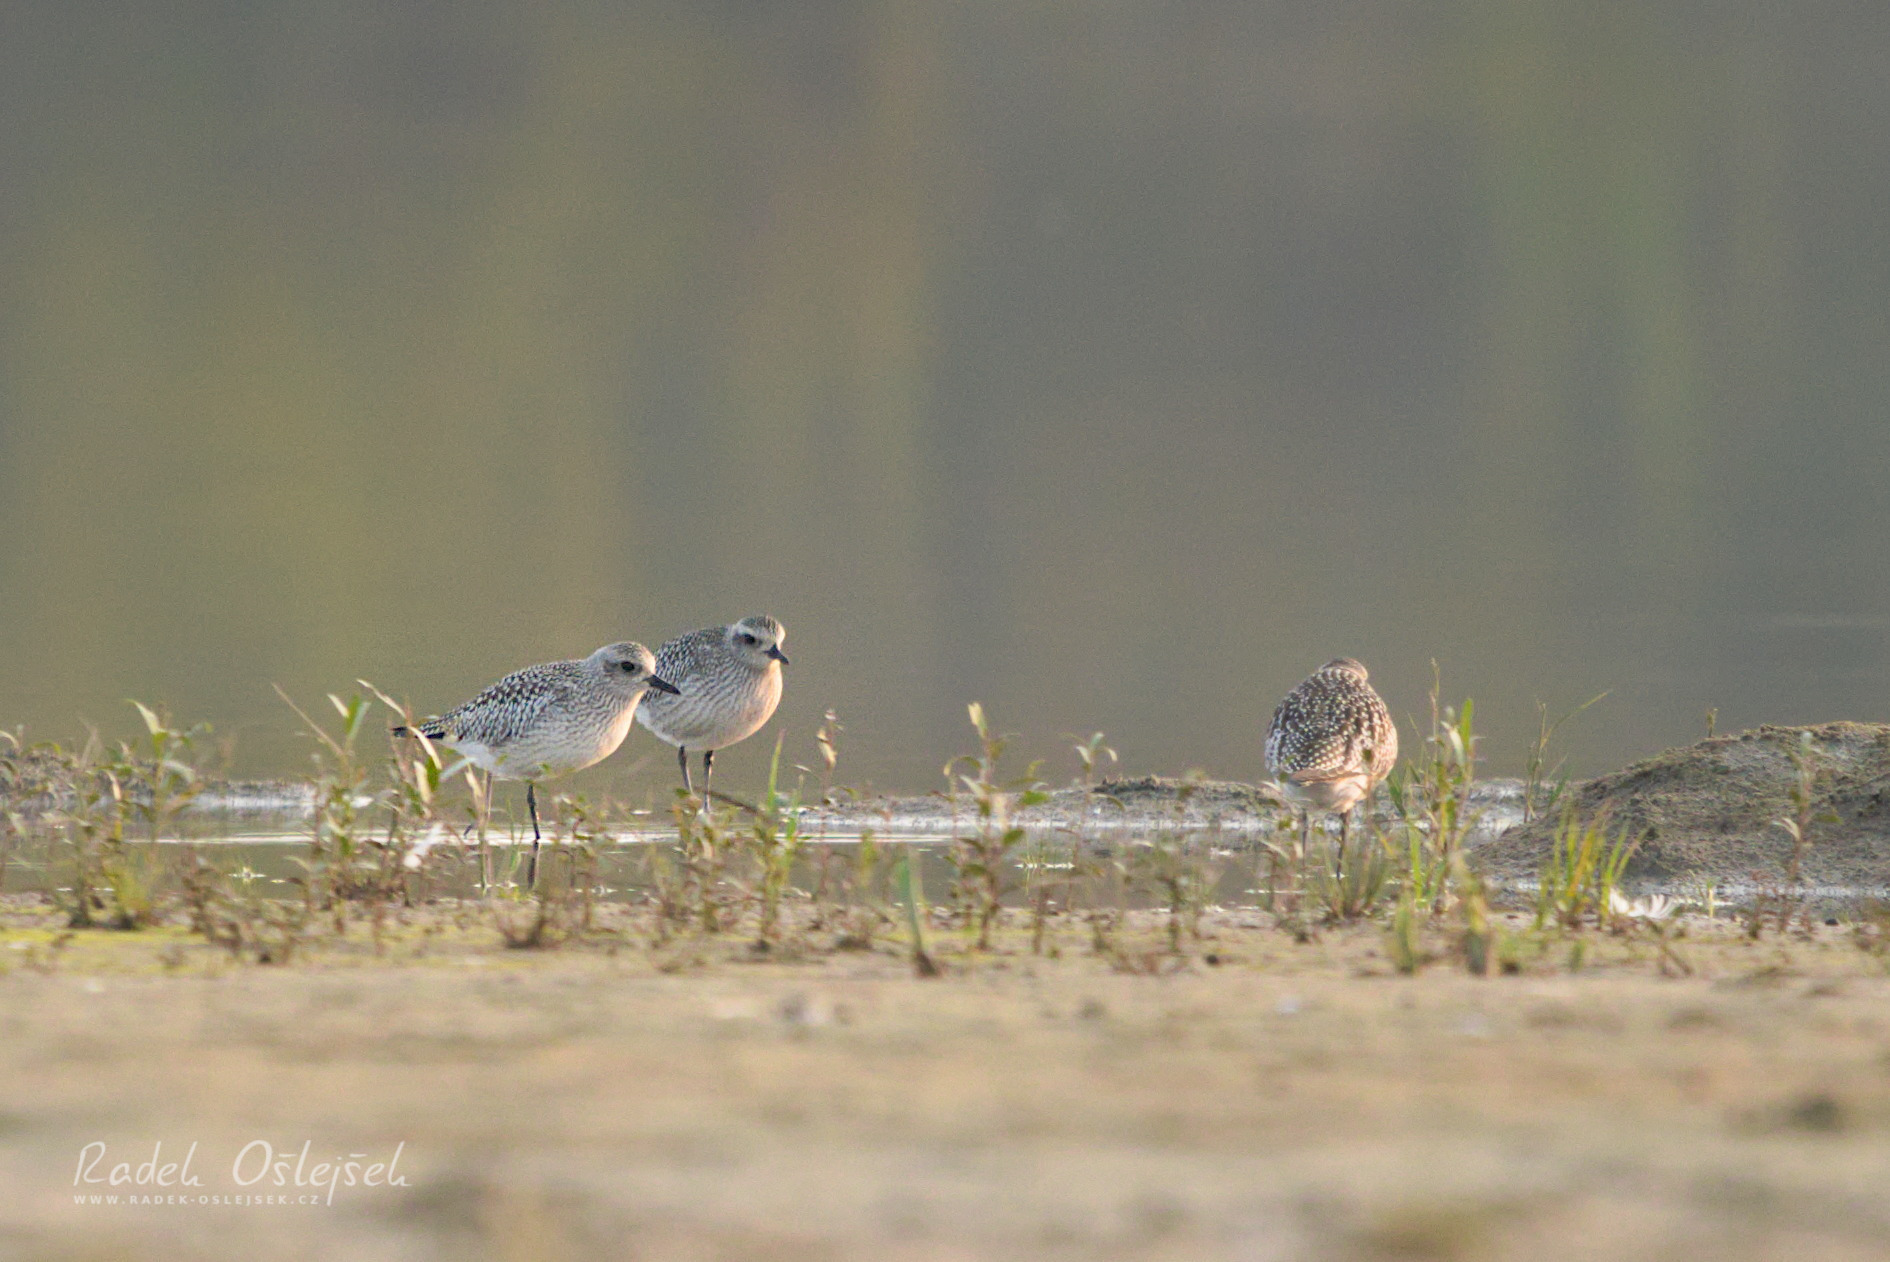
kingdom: Animalia
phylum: Chordata
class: Aves
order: Charadriiformes
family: Charadriidae
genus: Pluvialis
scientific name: Pluvialis squatarola
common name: Grey plover
